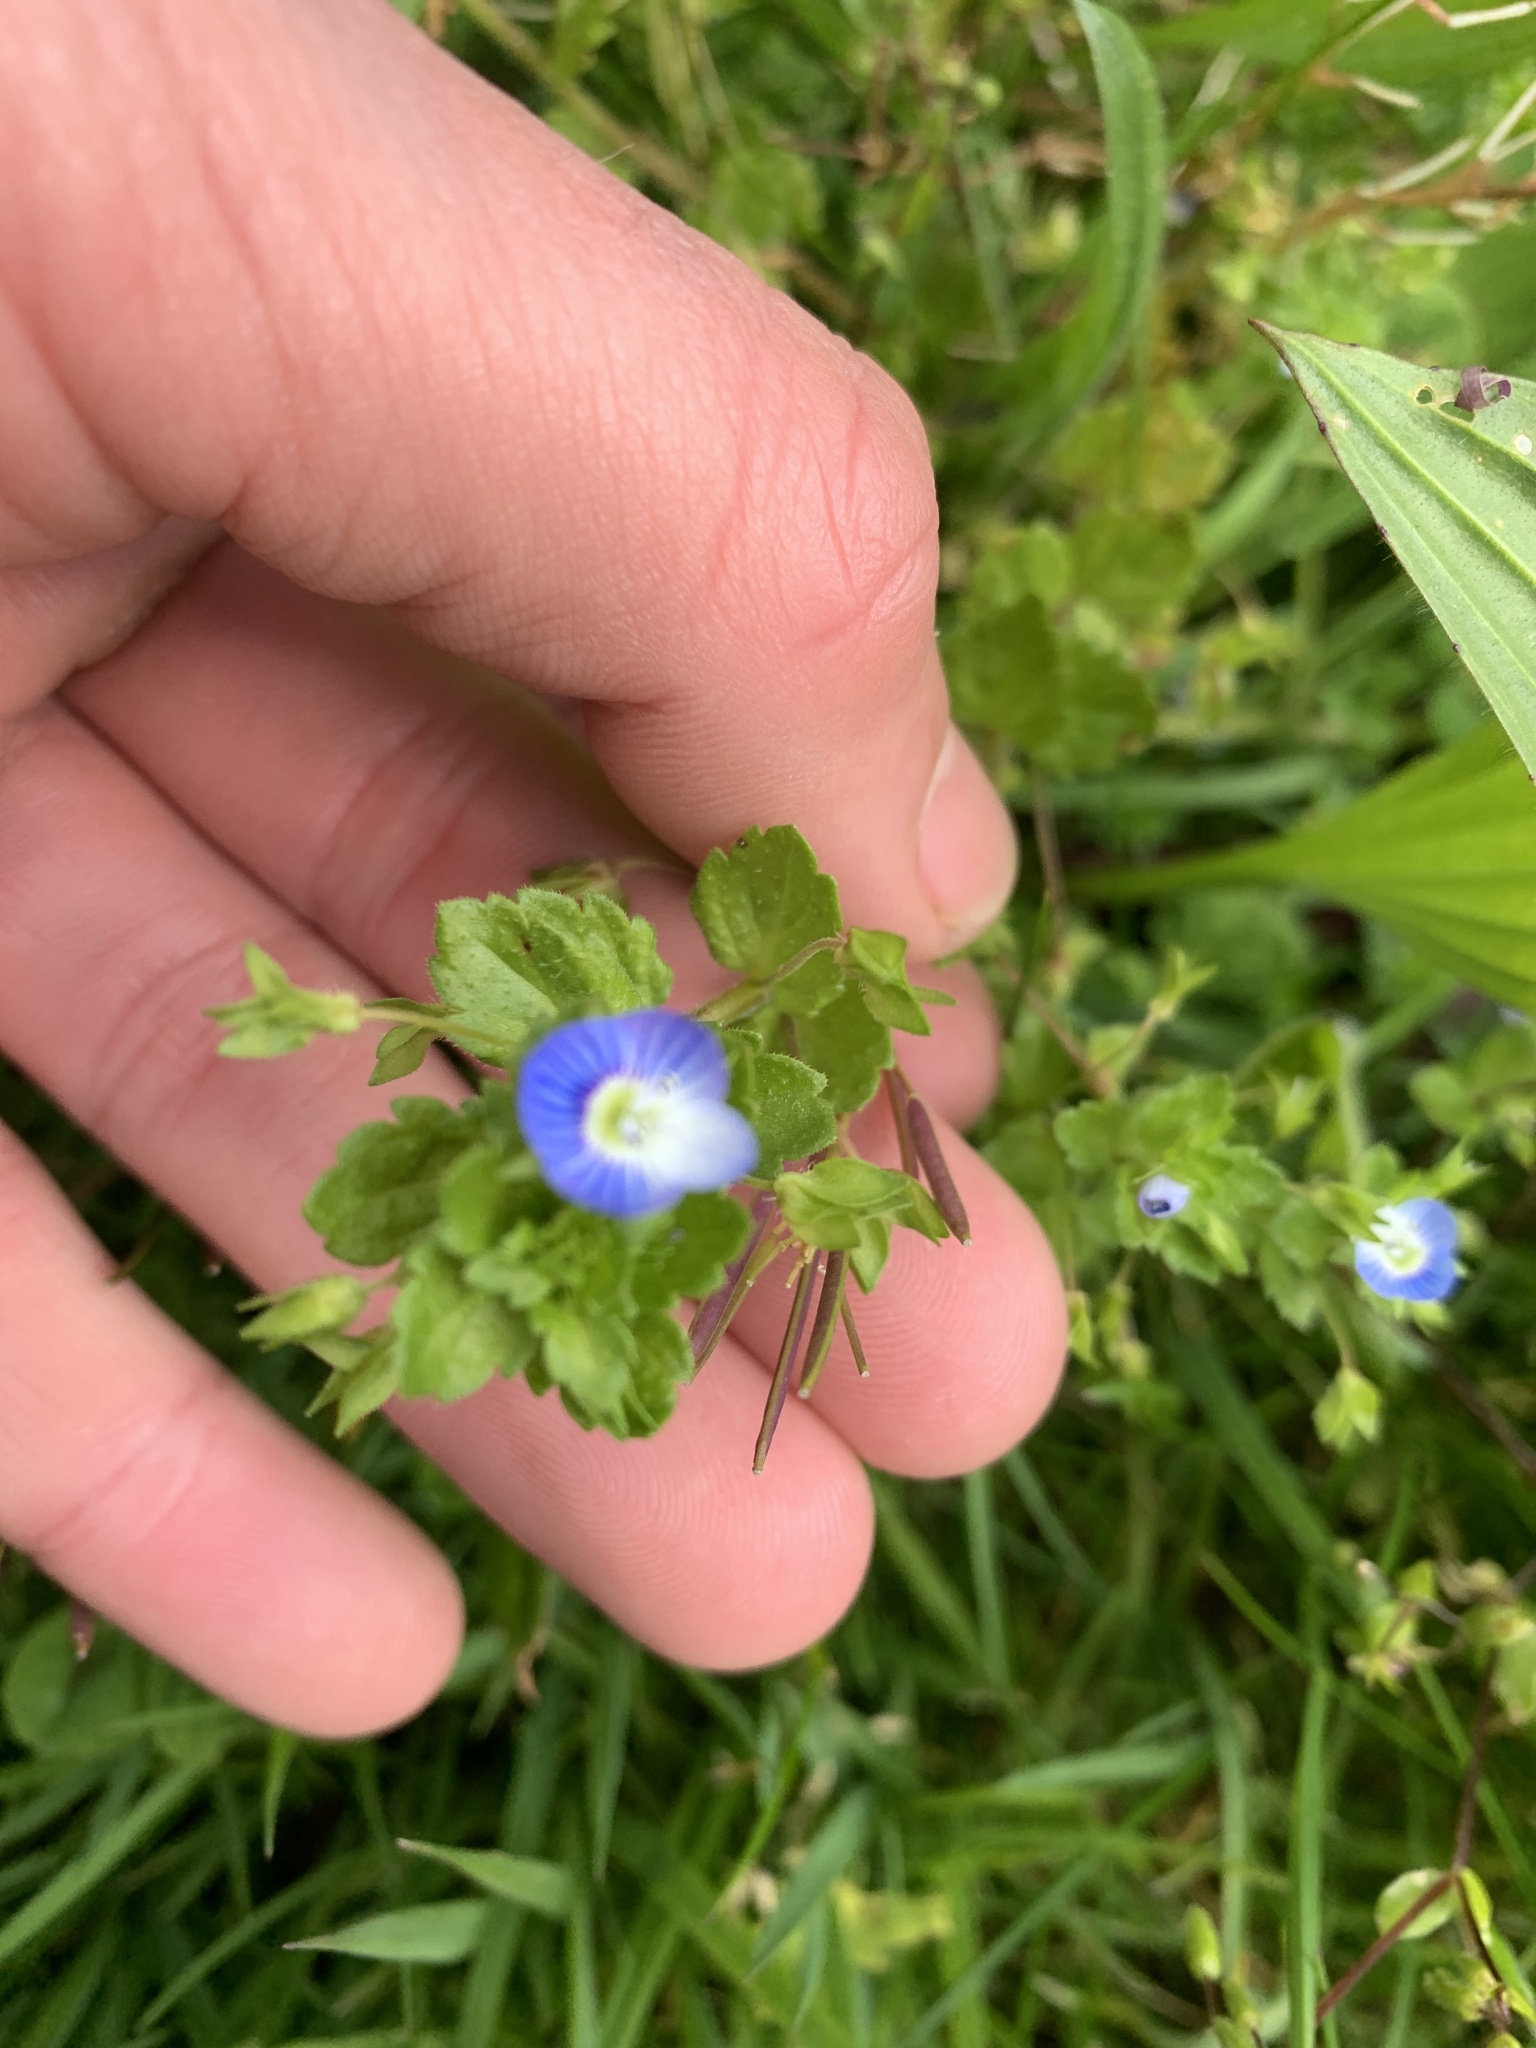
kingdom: Plantae
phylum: Tracheophyta
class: Magnoliopsida
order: Lamiales
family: Plantaginaceae
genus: Veronica
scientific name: Veronica persica
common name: Common field-speedwell
